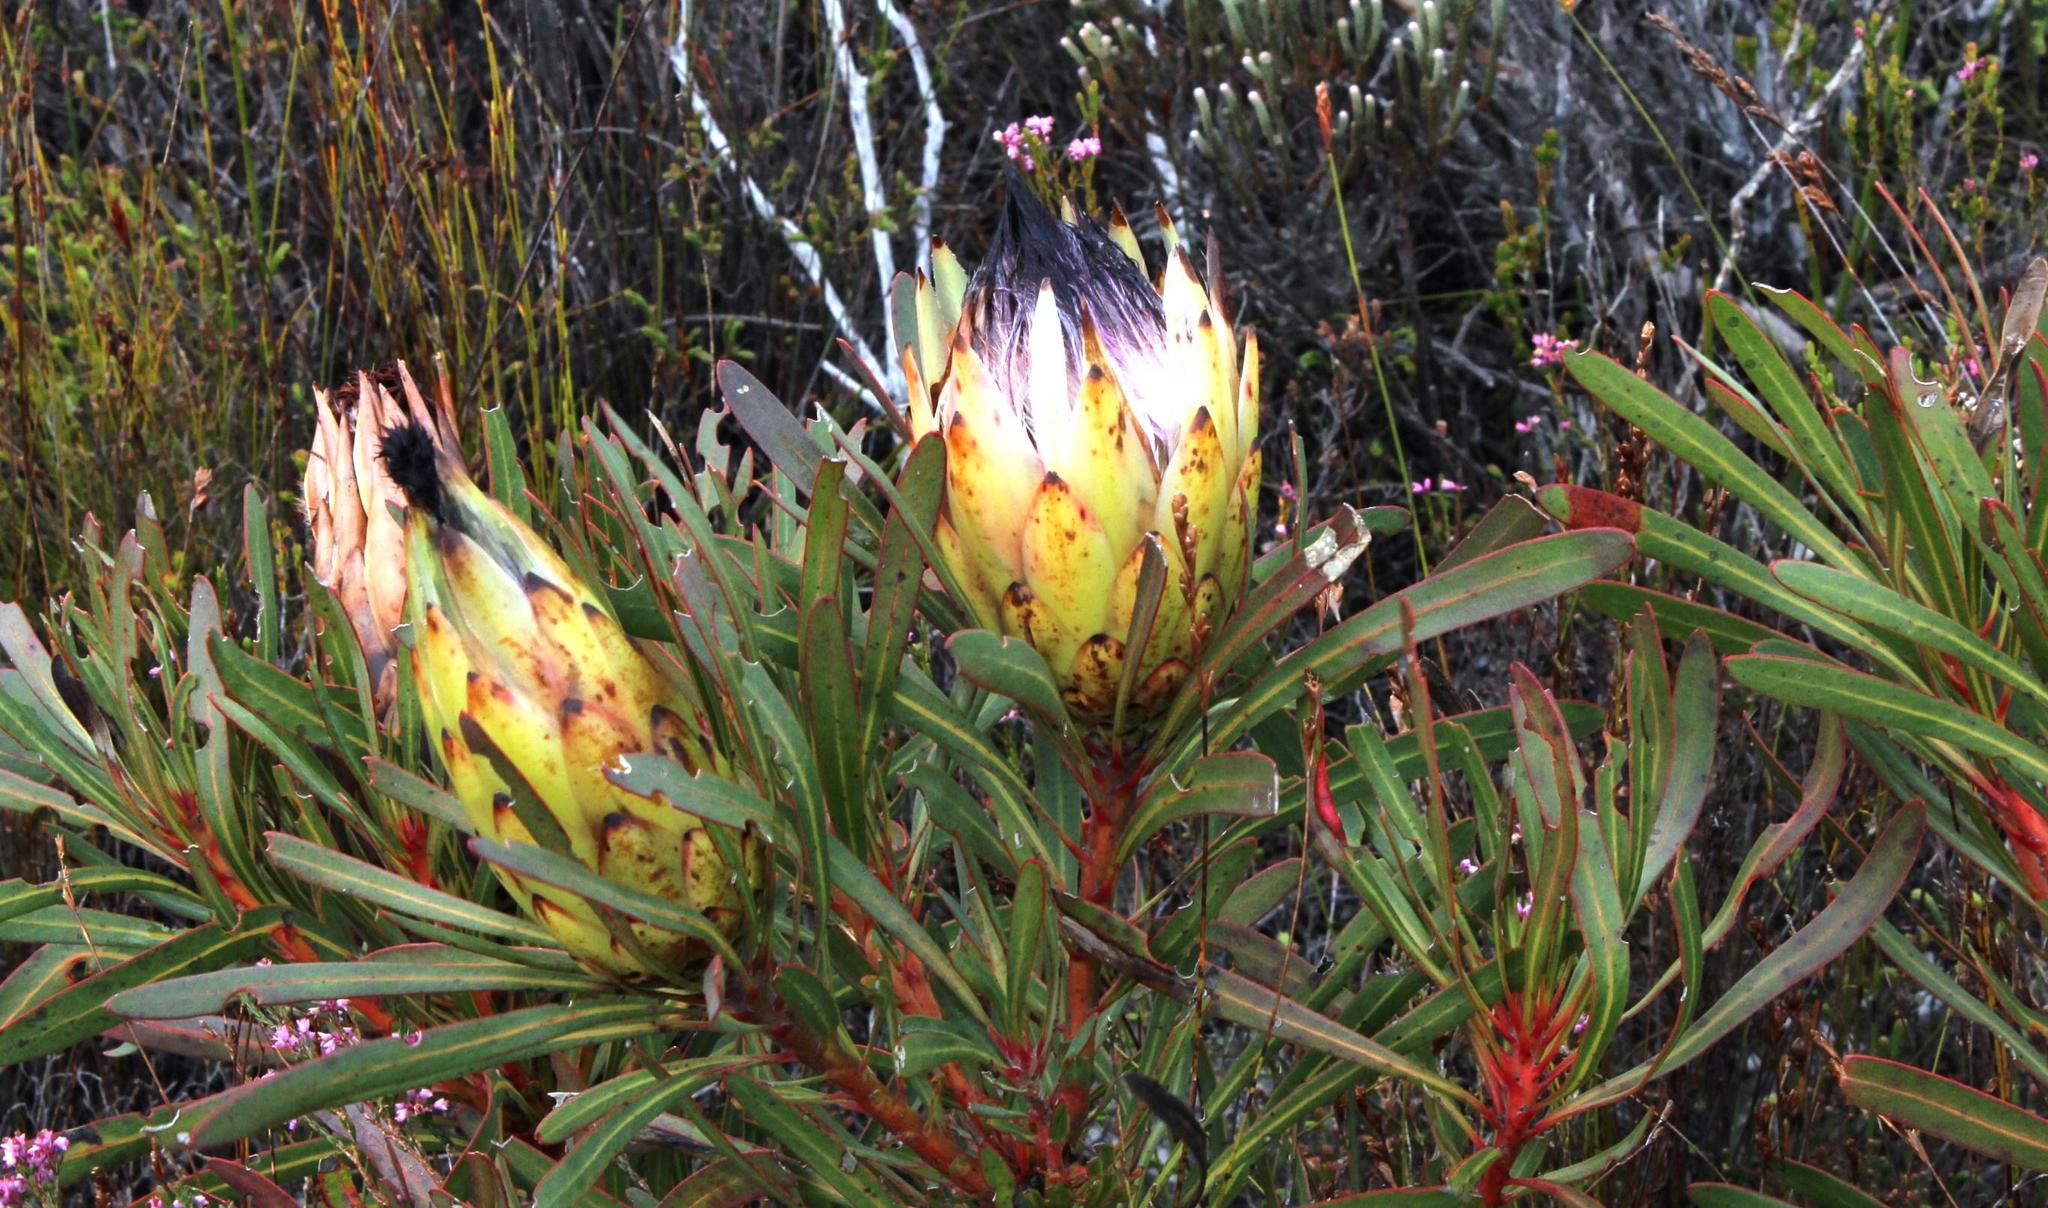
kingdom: Plantae
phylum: Tracheophyta
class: Magnoliopsida
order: Proteales
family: Proteaceae
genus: Protea
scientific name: Protea longifolia
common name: Long-leaf sugarbush
